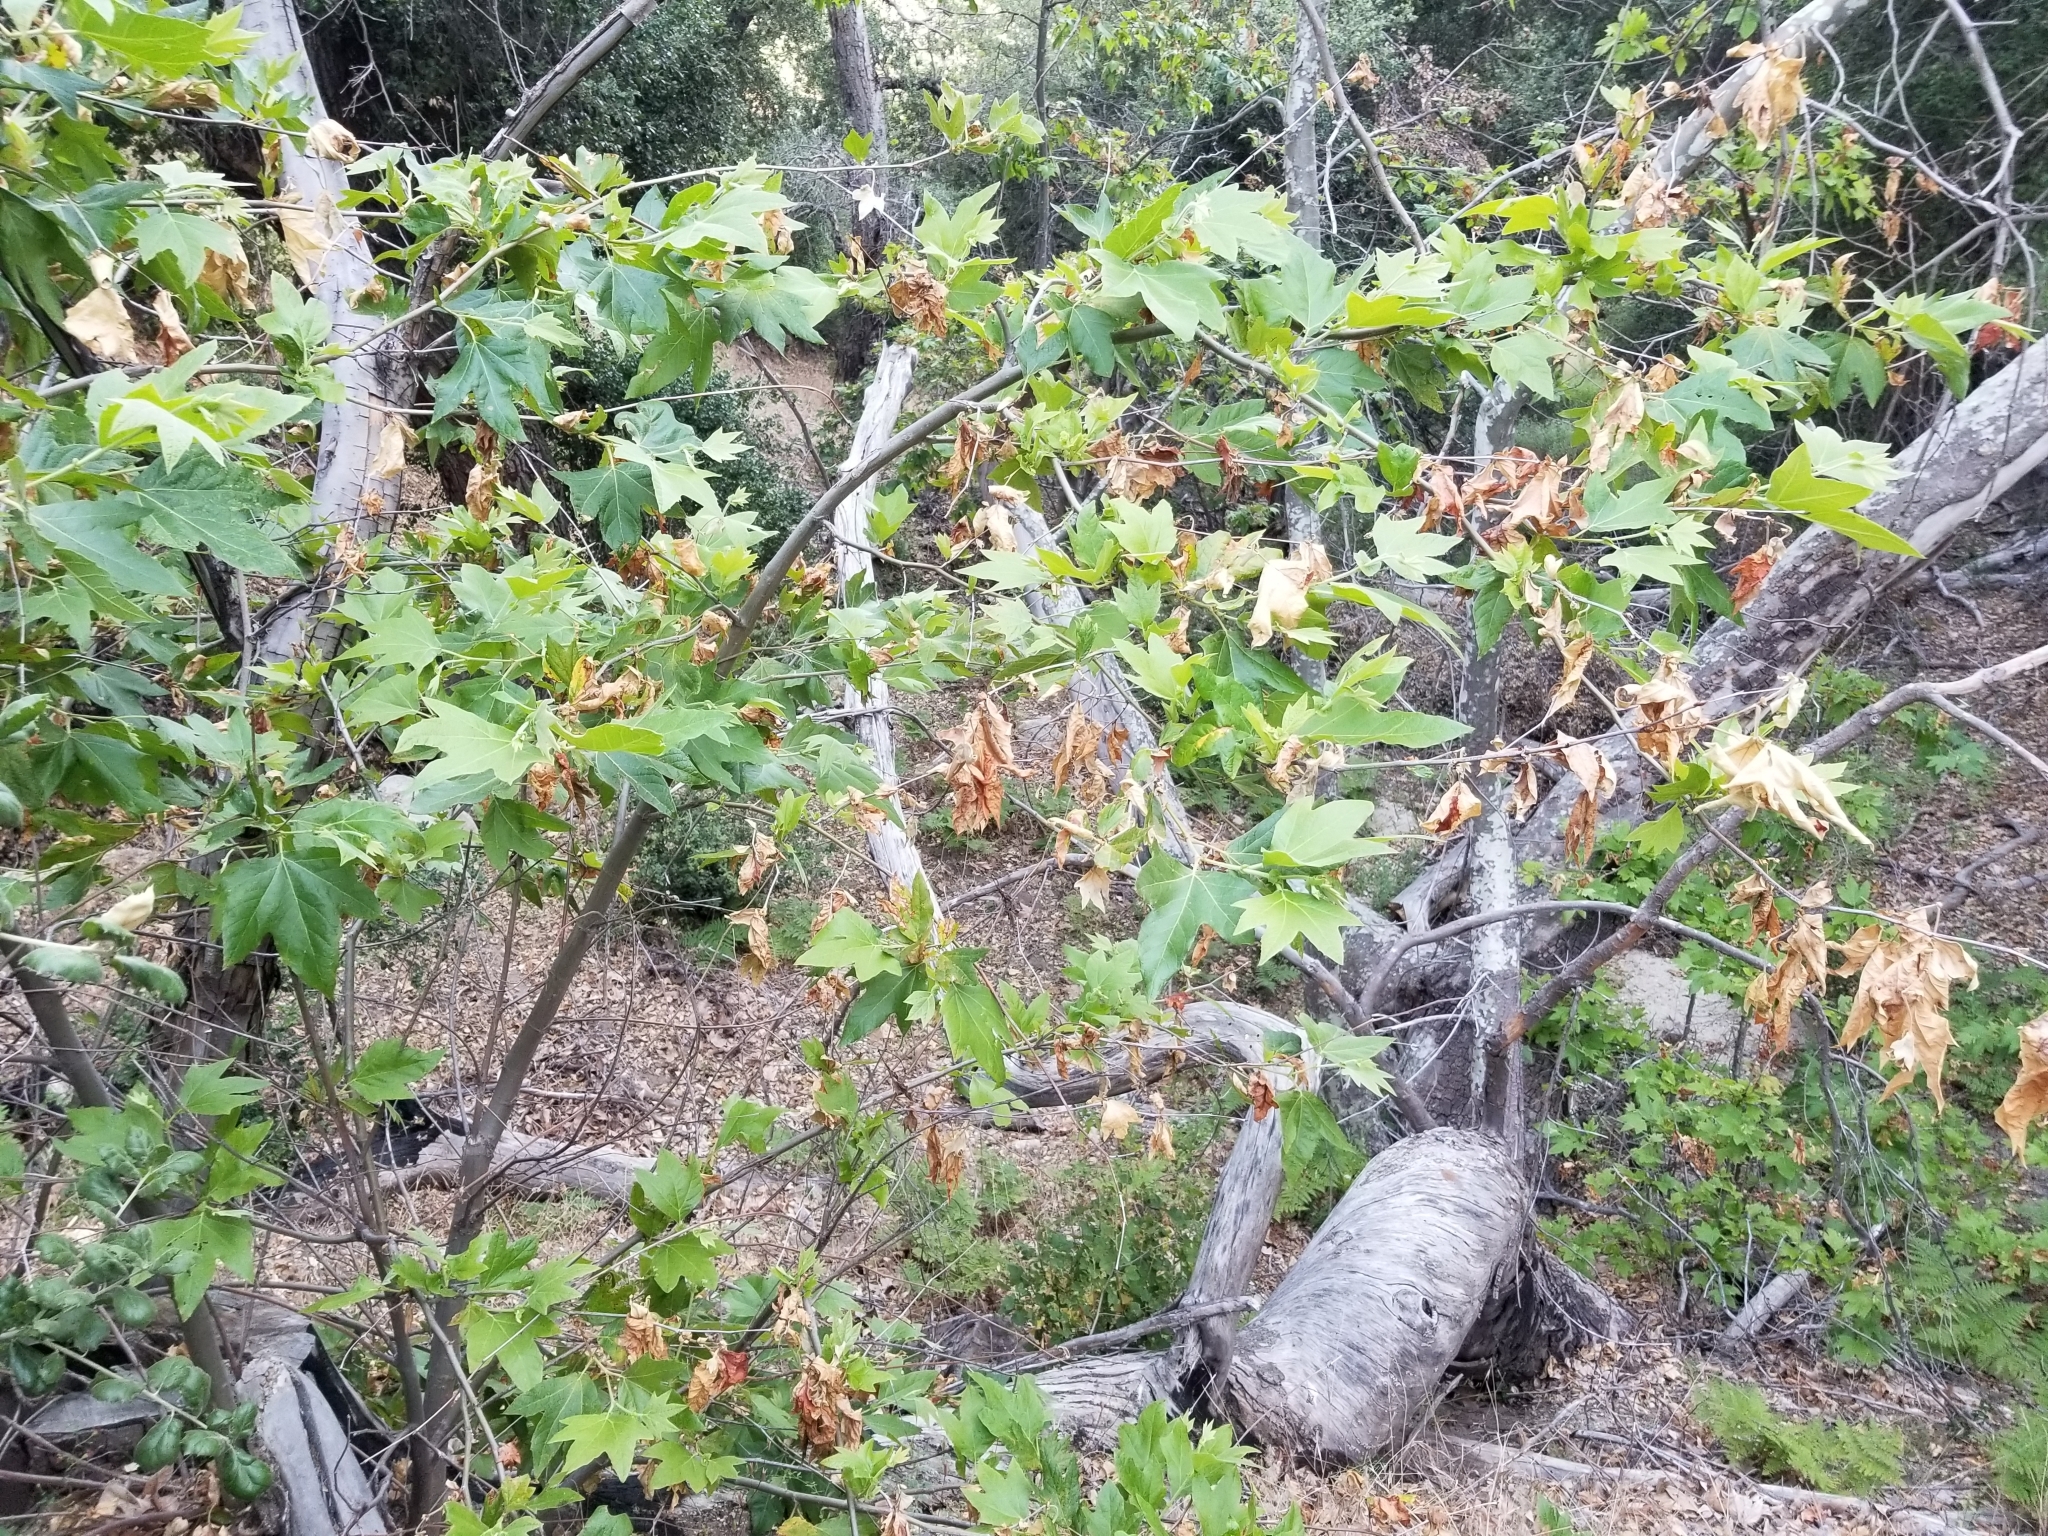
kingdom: Plantae
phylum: Tracheophyta
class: Magnoliopsida
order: Proteales
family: Platanaceae
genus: Platanus
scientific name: Platanus racemosa
